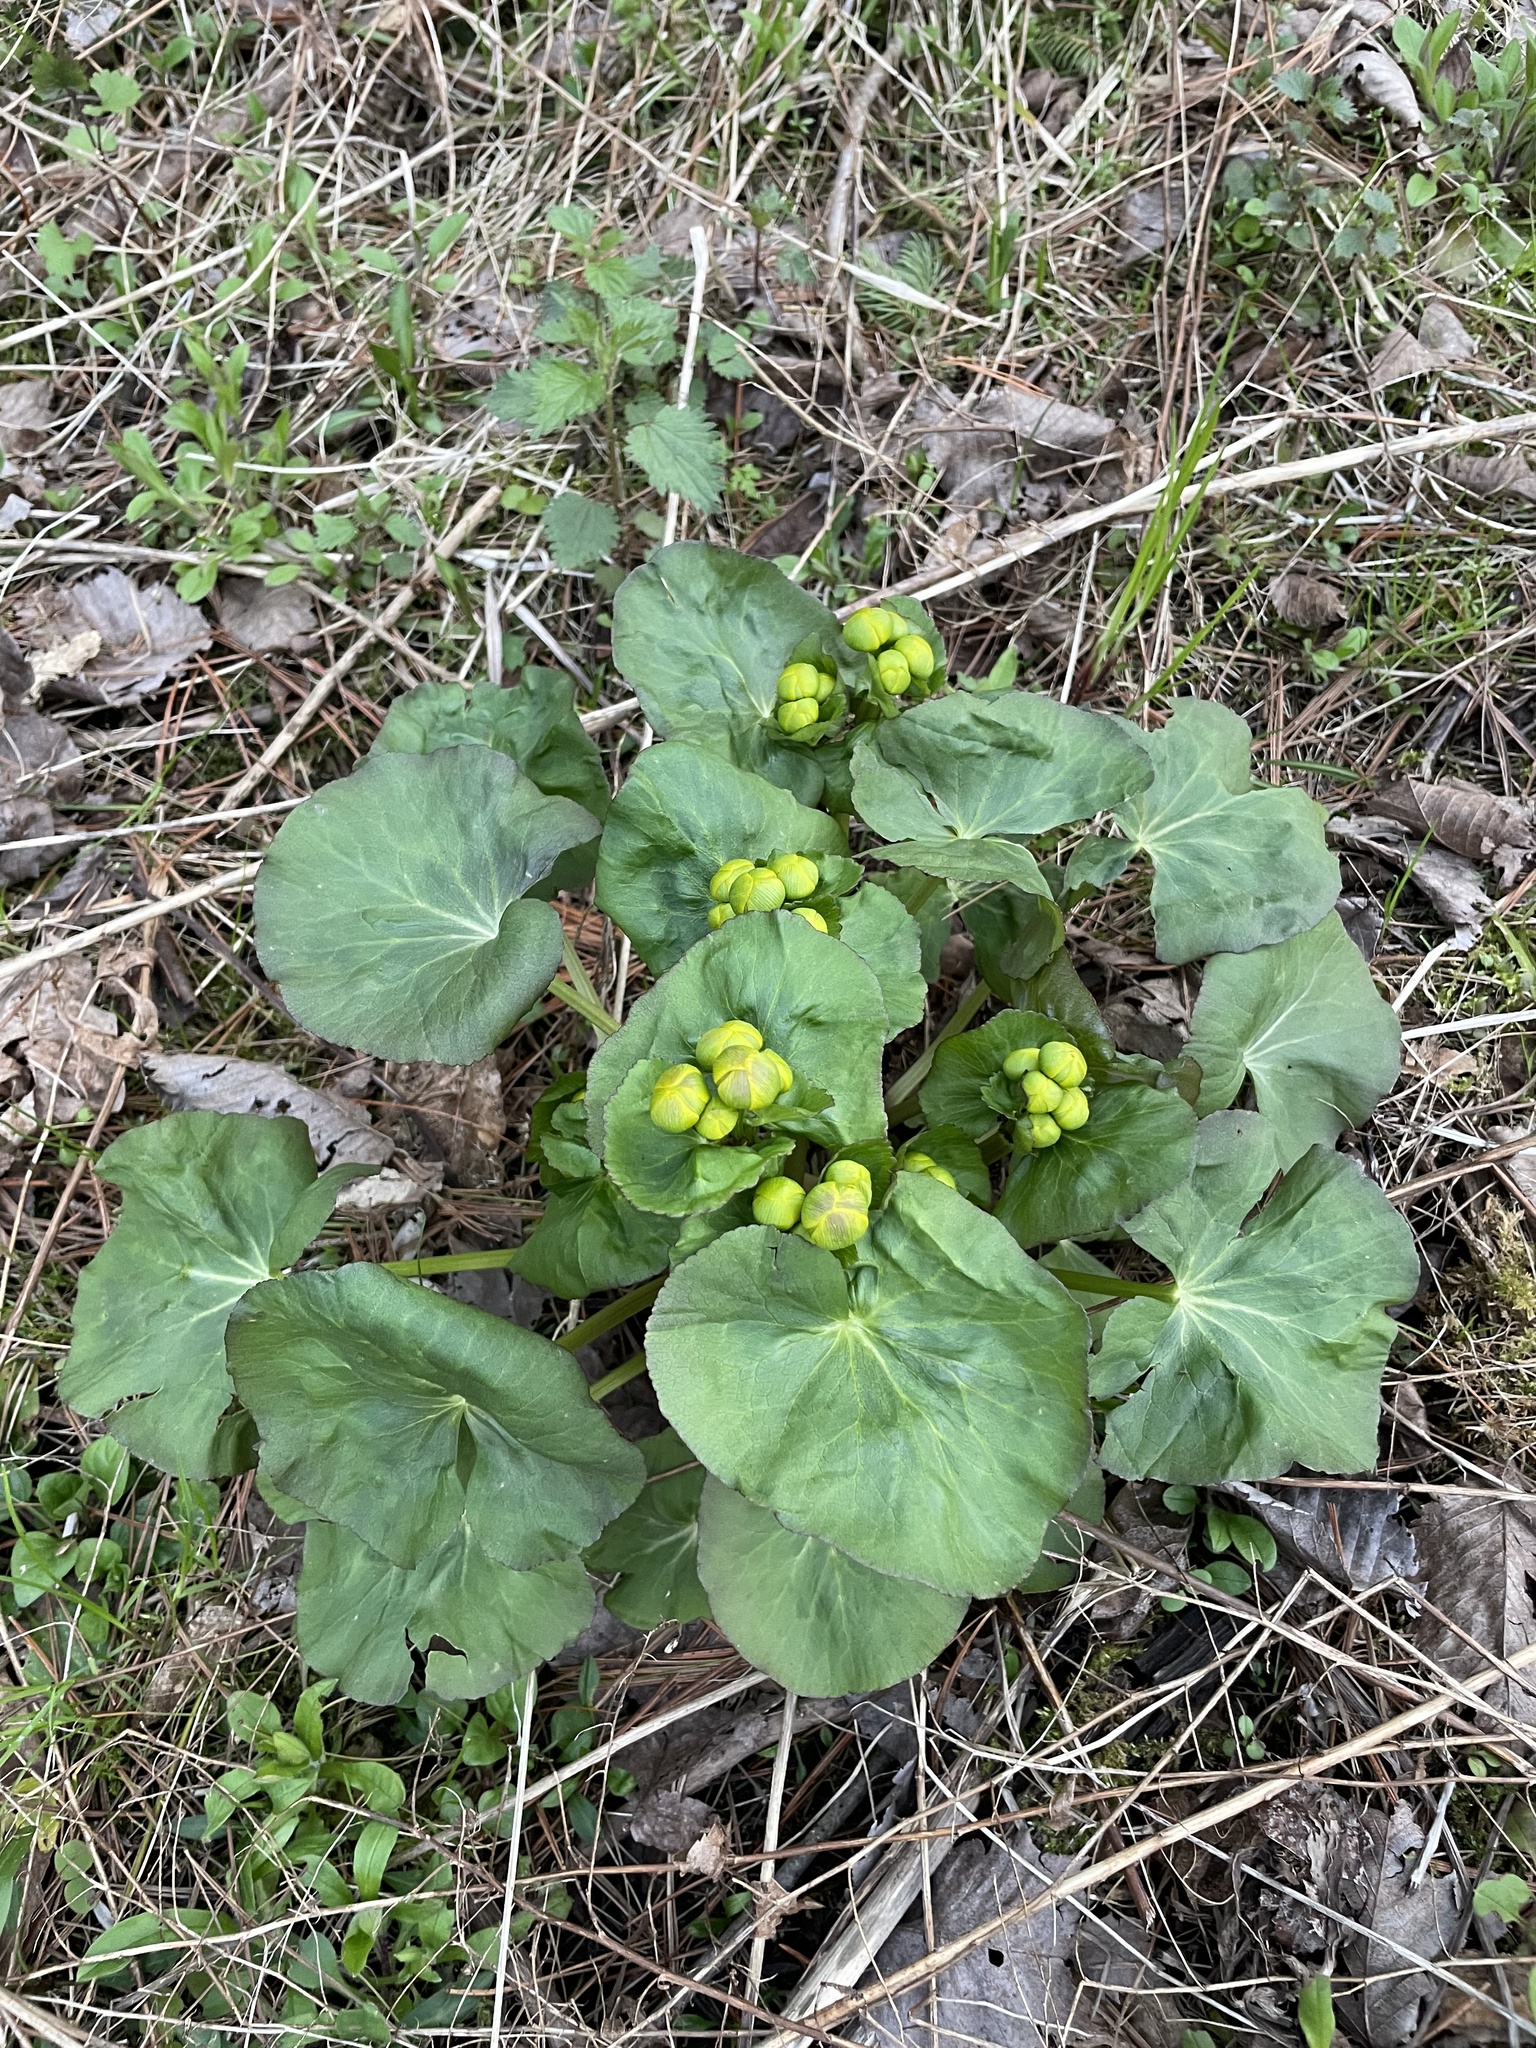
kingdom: Plantae
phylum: Tracheophyta
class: Magnoliopsida
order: Ranunculales
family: Ranunculaceae
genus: Caltha
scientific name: Caltha palustris
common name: Marsh marigold
